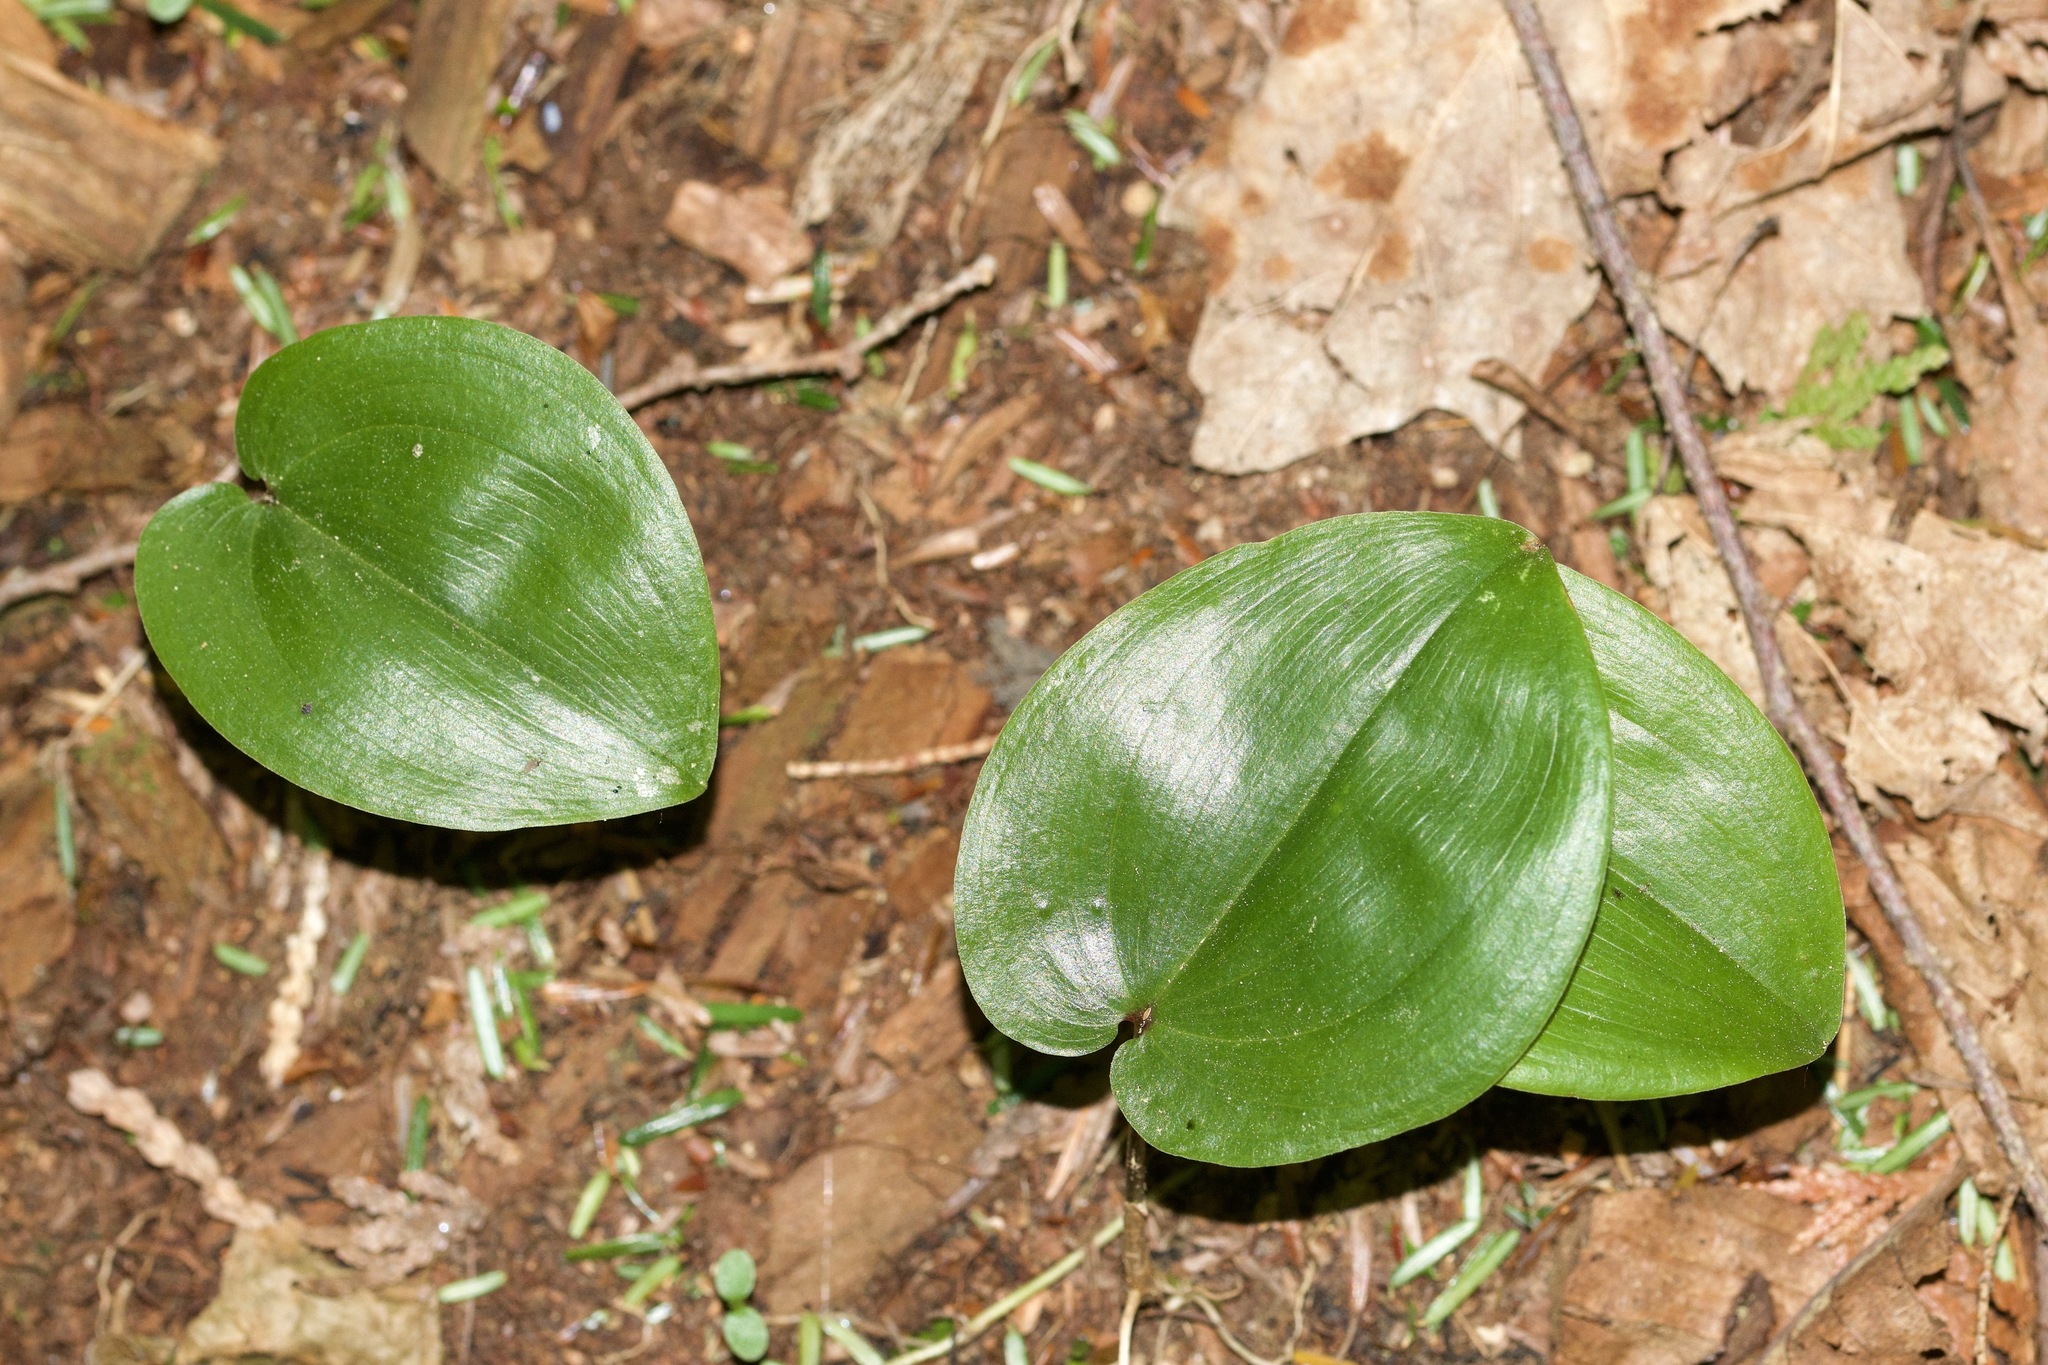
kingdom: Plantae
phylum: Tracheophyta
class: Liliopsida
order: Asparagales
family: Asparagaceae
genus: Maianthemum
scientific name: Maianthemum canadense
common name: False lily-of-the-valley
